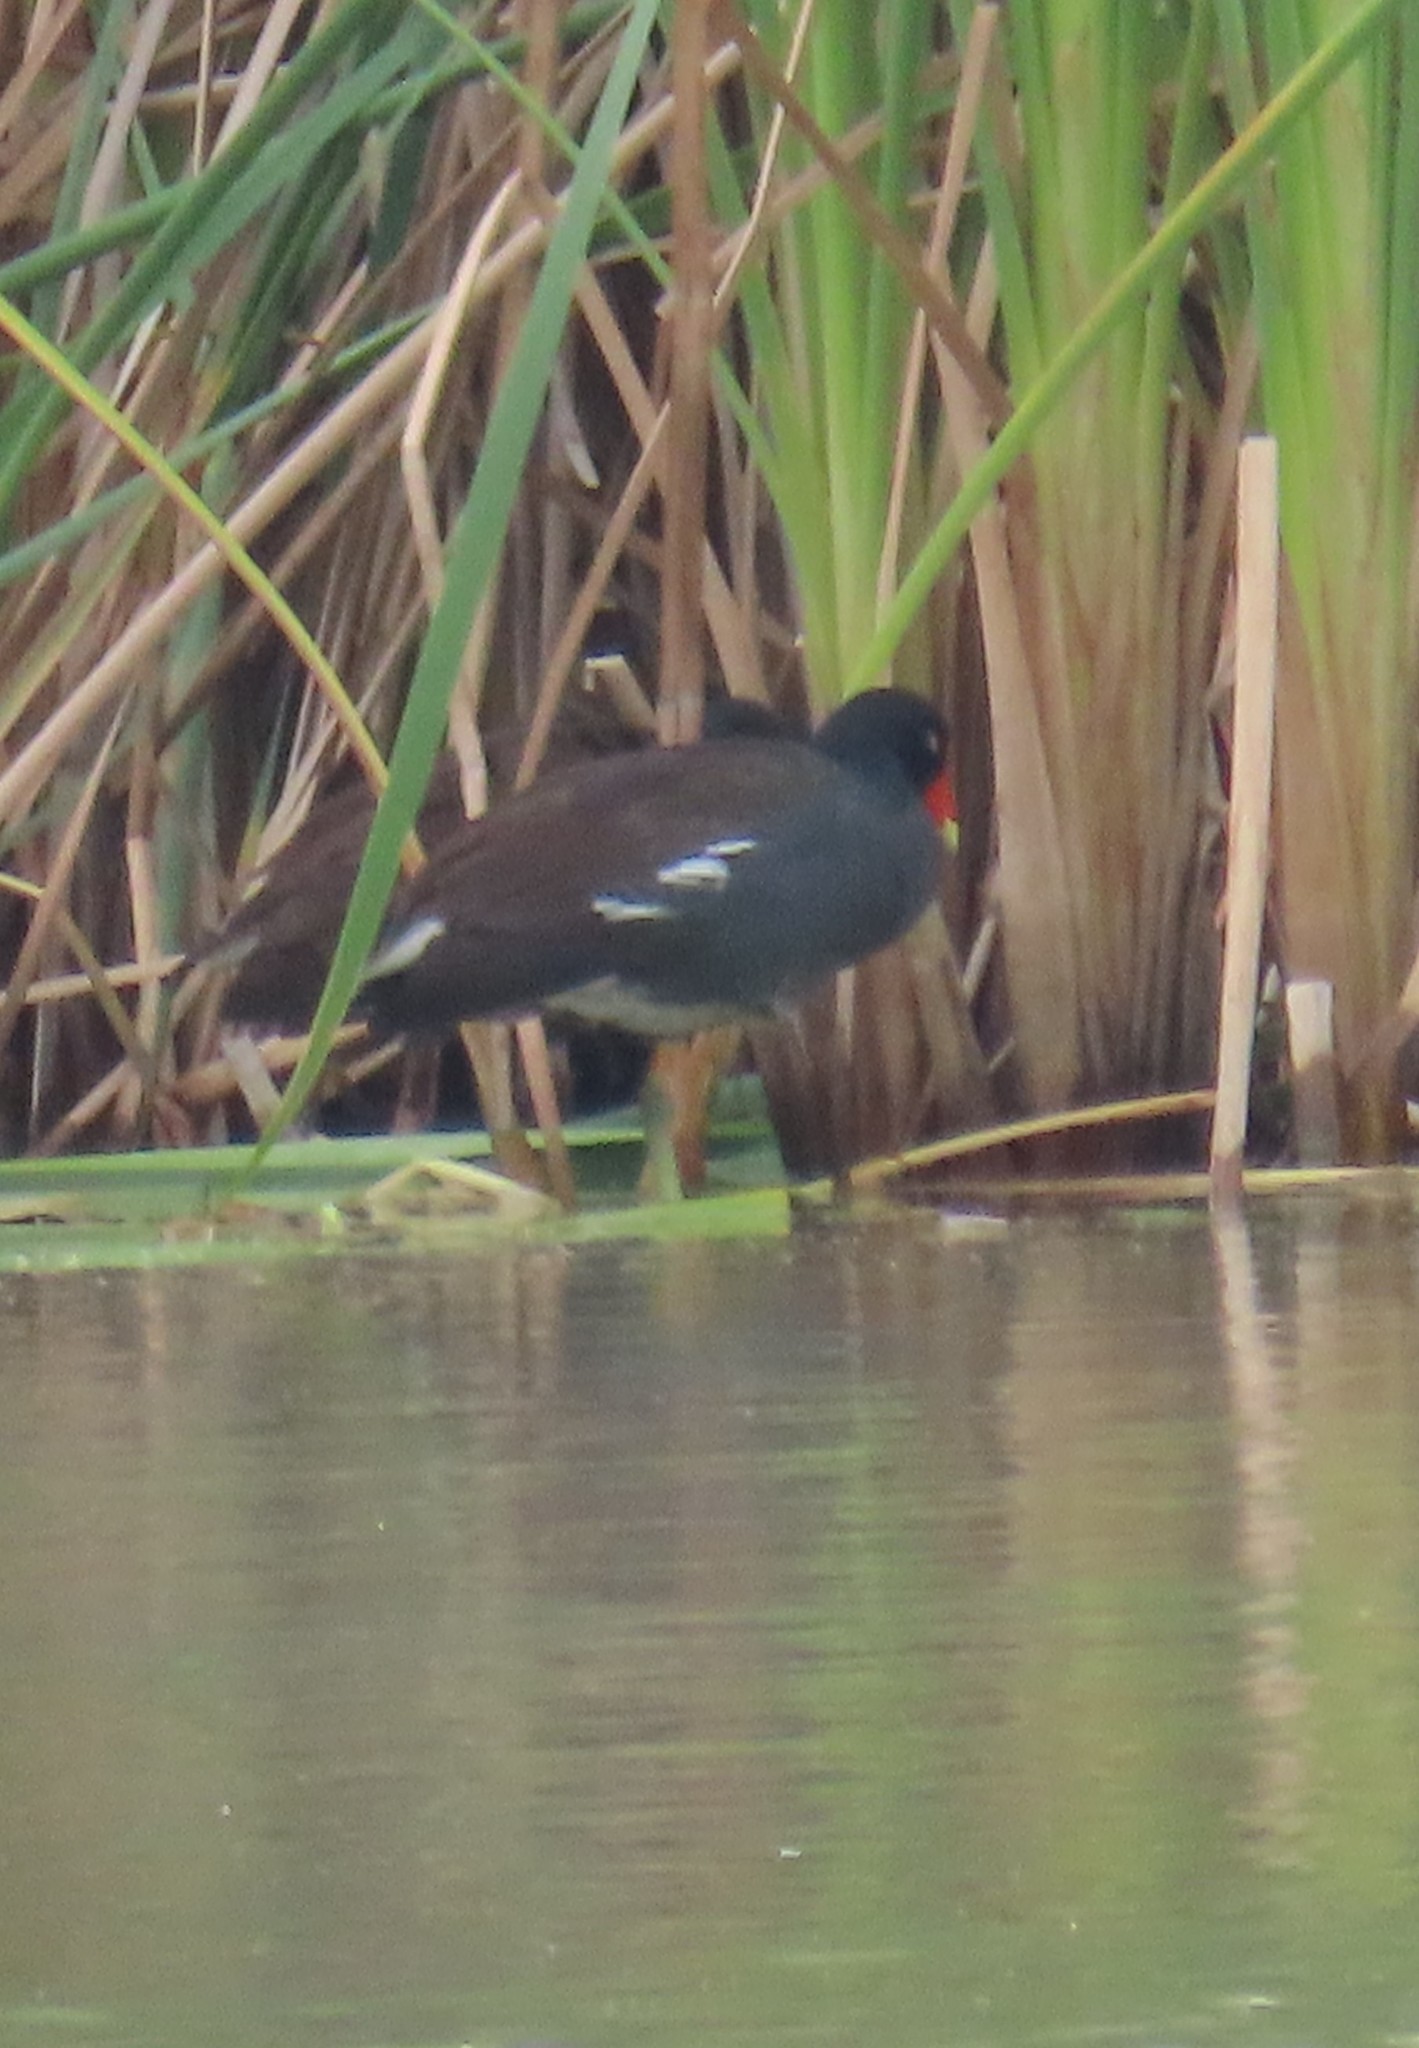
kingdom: Animalia
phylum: Chordata
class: Aves
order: Gruiformes
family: Rallidae
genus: Gallinula
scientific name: Gallinula chloropus
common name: Common moorhen
